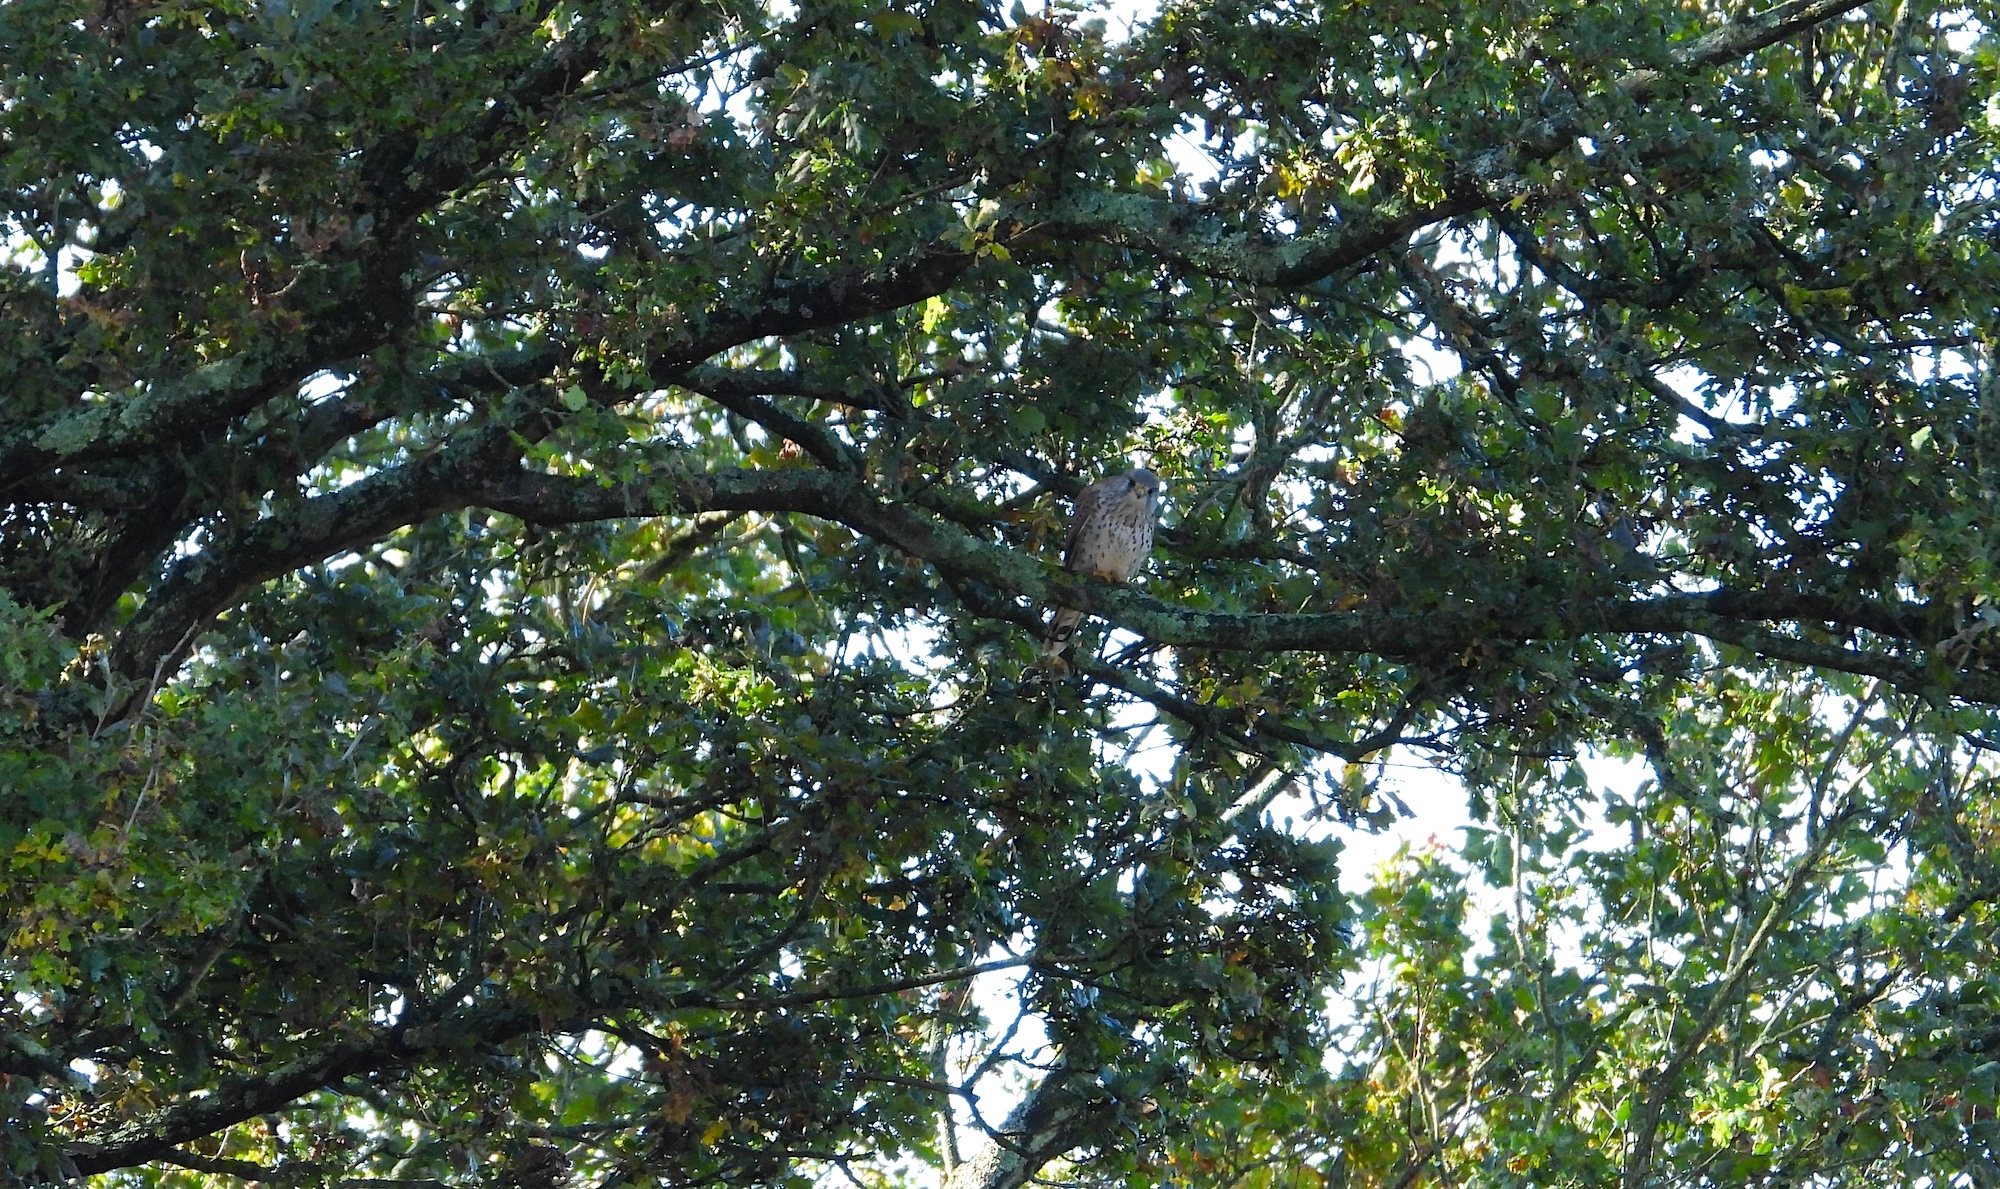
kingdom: Animalia
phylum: Chordata
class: Aves
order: Falconiformes
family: Falconidae
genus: Falco
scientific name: Falco tinnunculus
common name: Common kestrel
